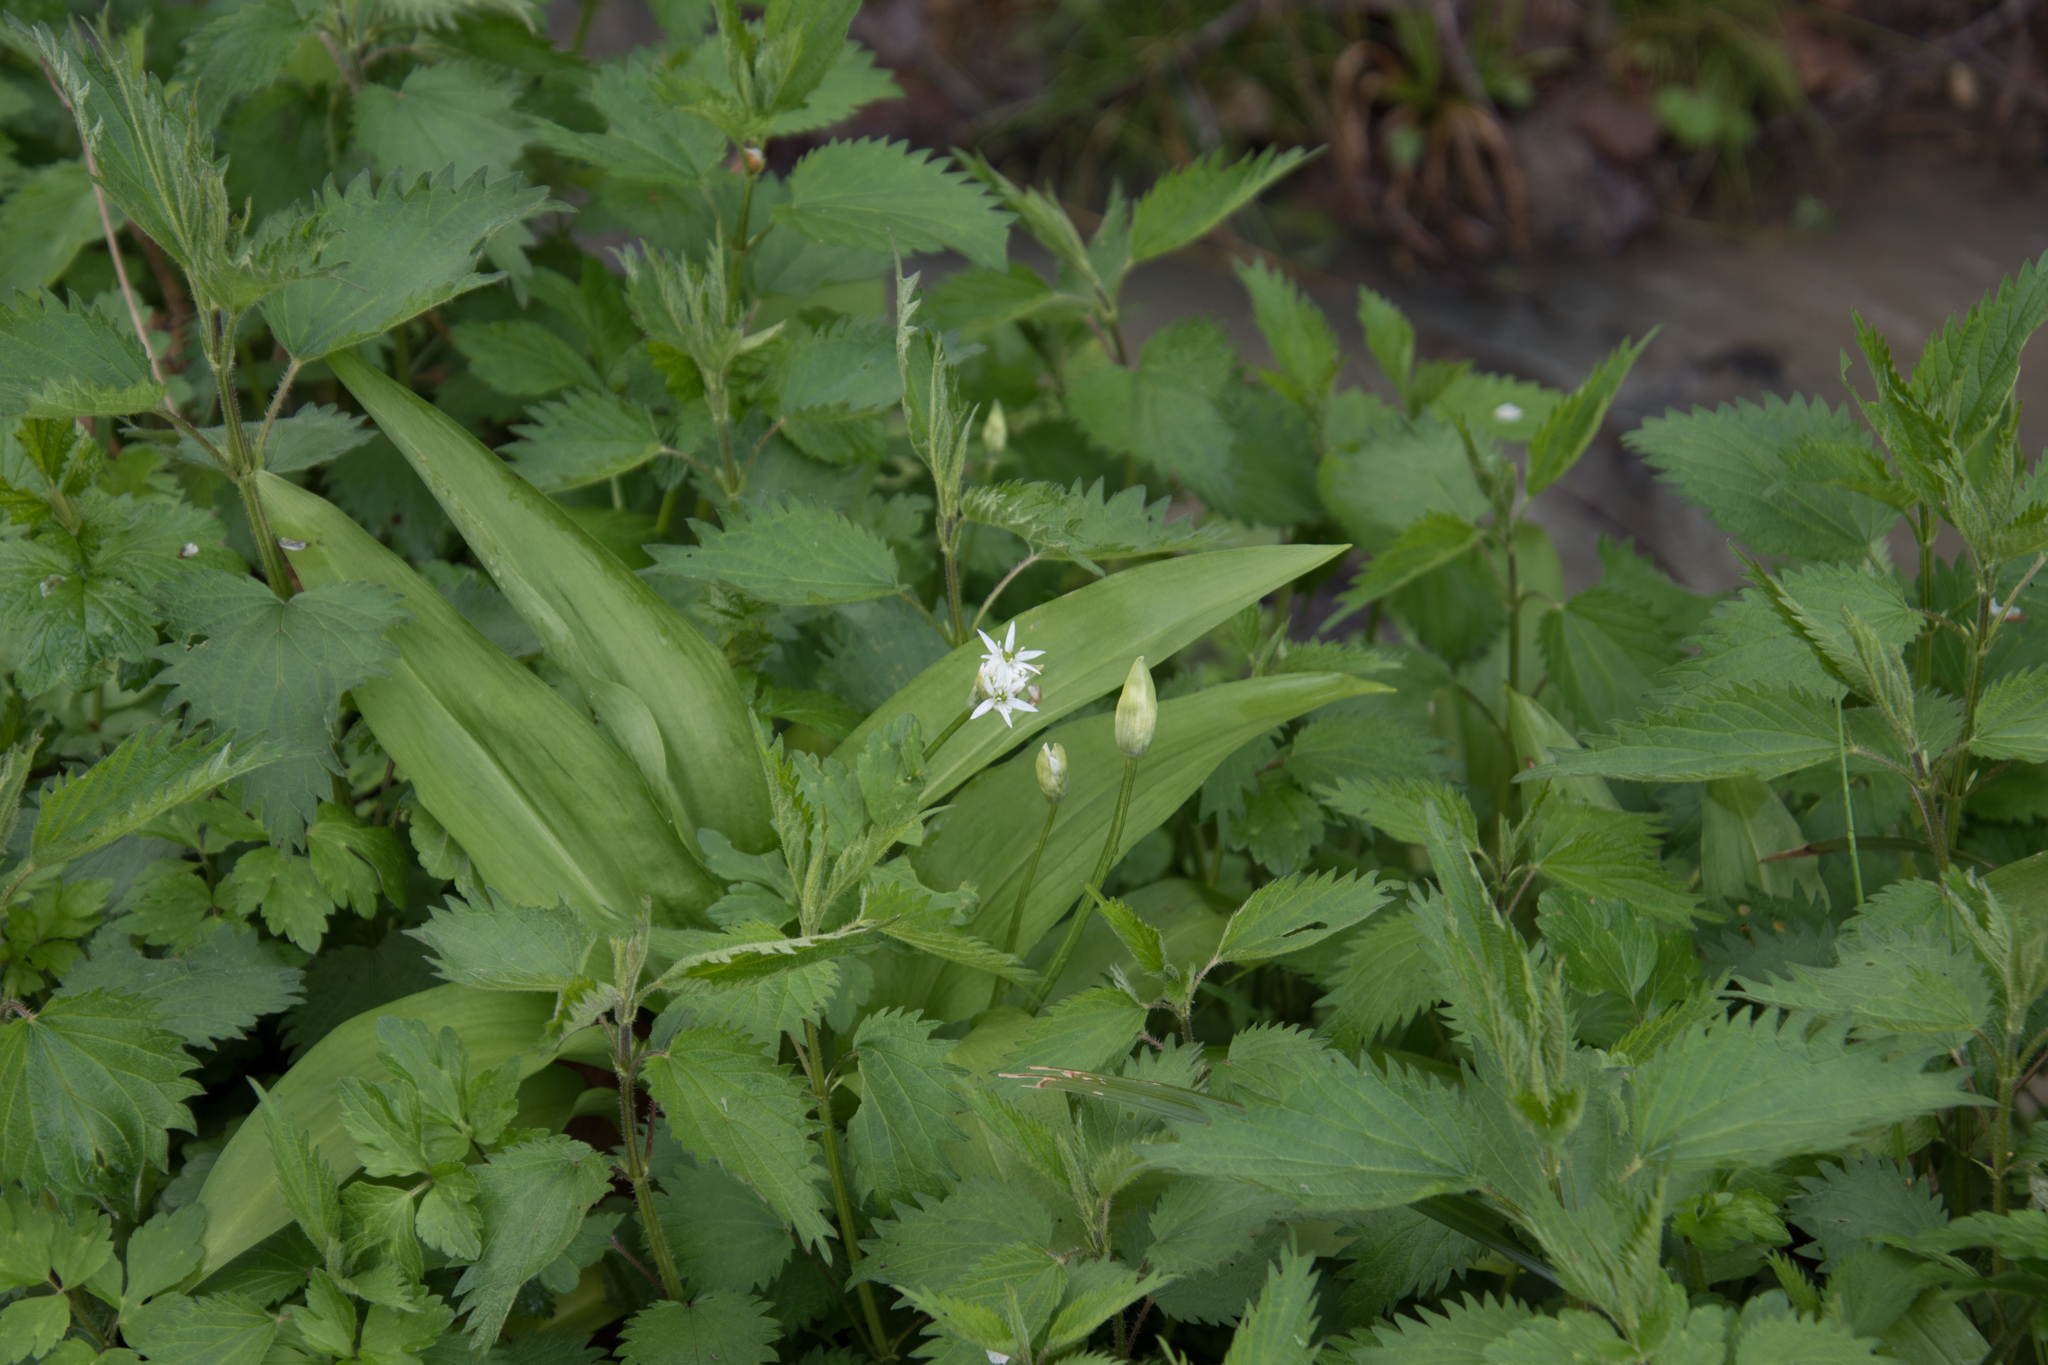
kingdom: Plantae
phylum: Tracheophyta
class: Liliopsida
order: Asparagales
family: Amaryllidaceae
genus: Allium
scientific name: Allium ursinum
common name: Ramsons
